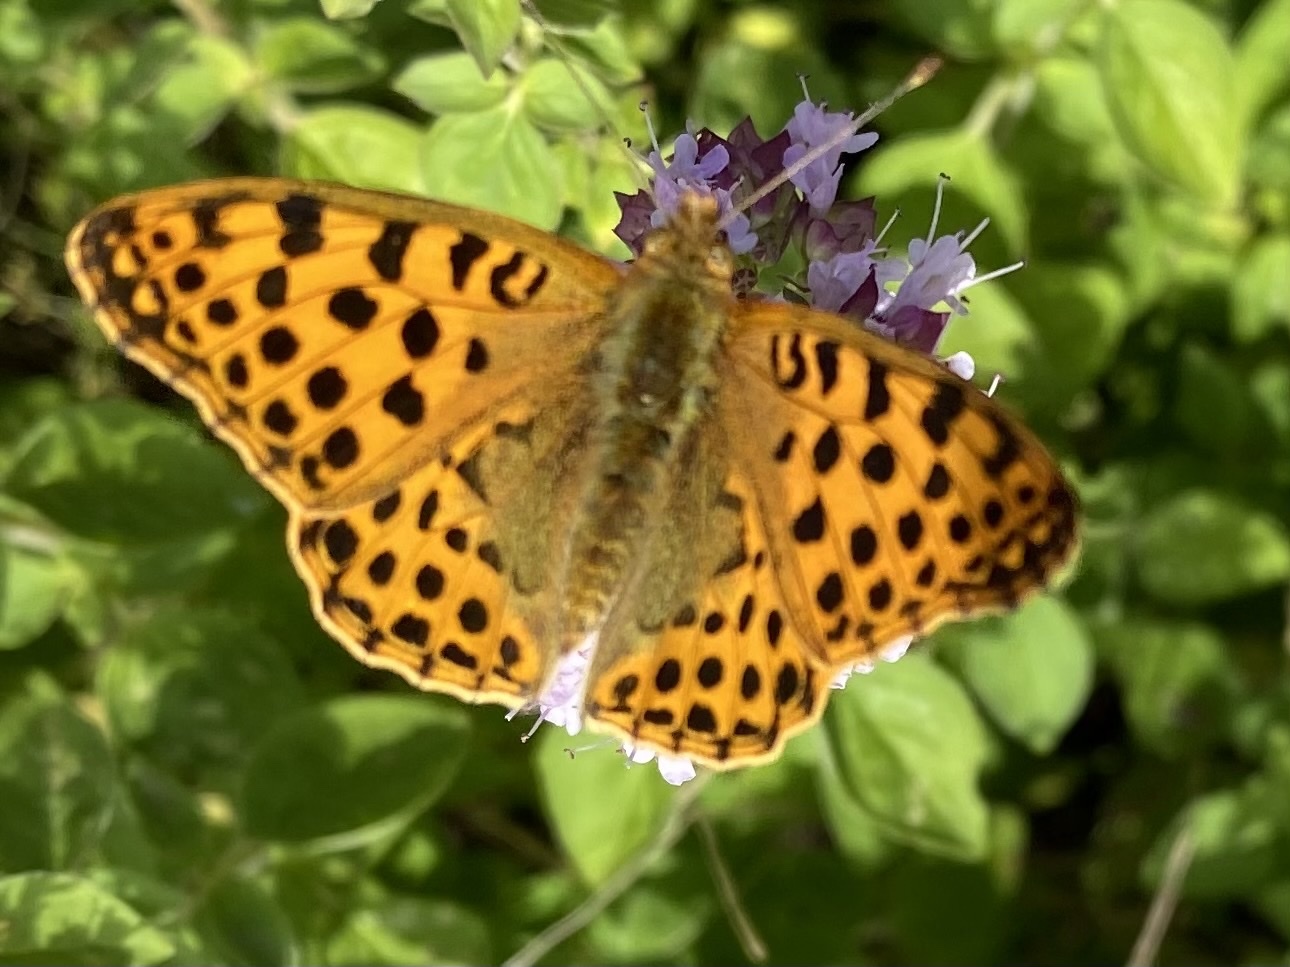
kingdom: Animalia
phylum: Arthropoda
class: Insecta
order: Lepidoptera
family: Nymphalidae
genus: Issoria
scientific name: Issoria lathonia
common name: Queen of spain fritillary
